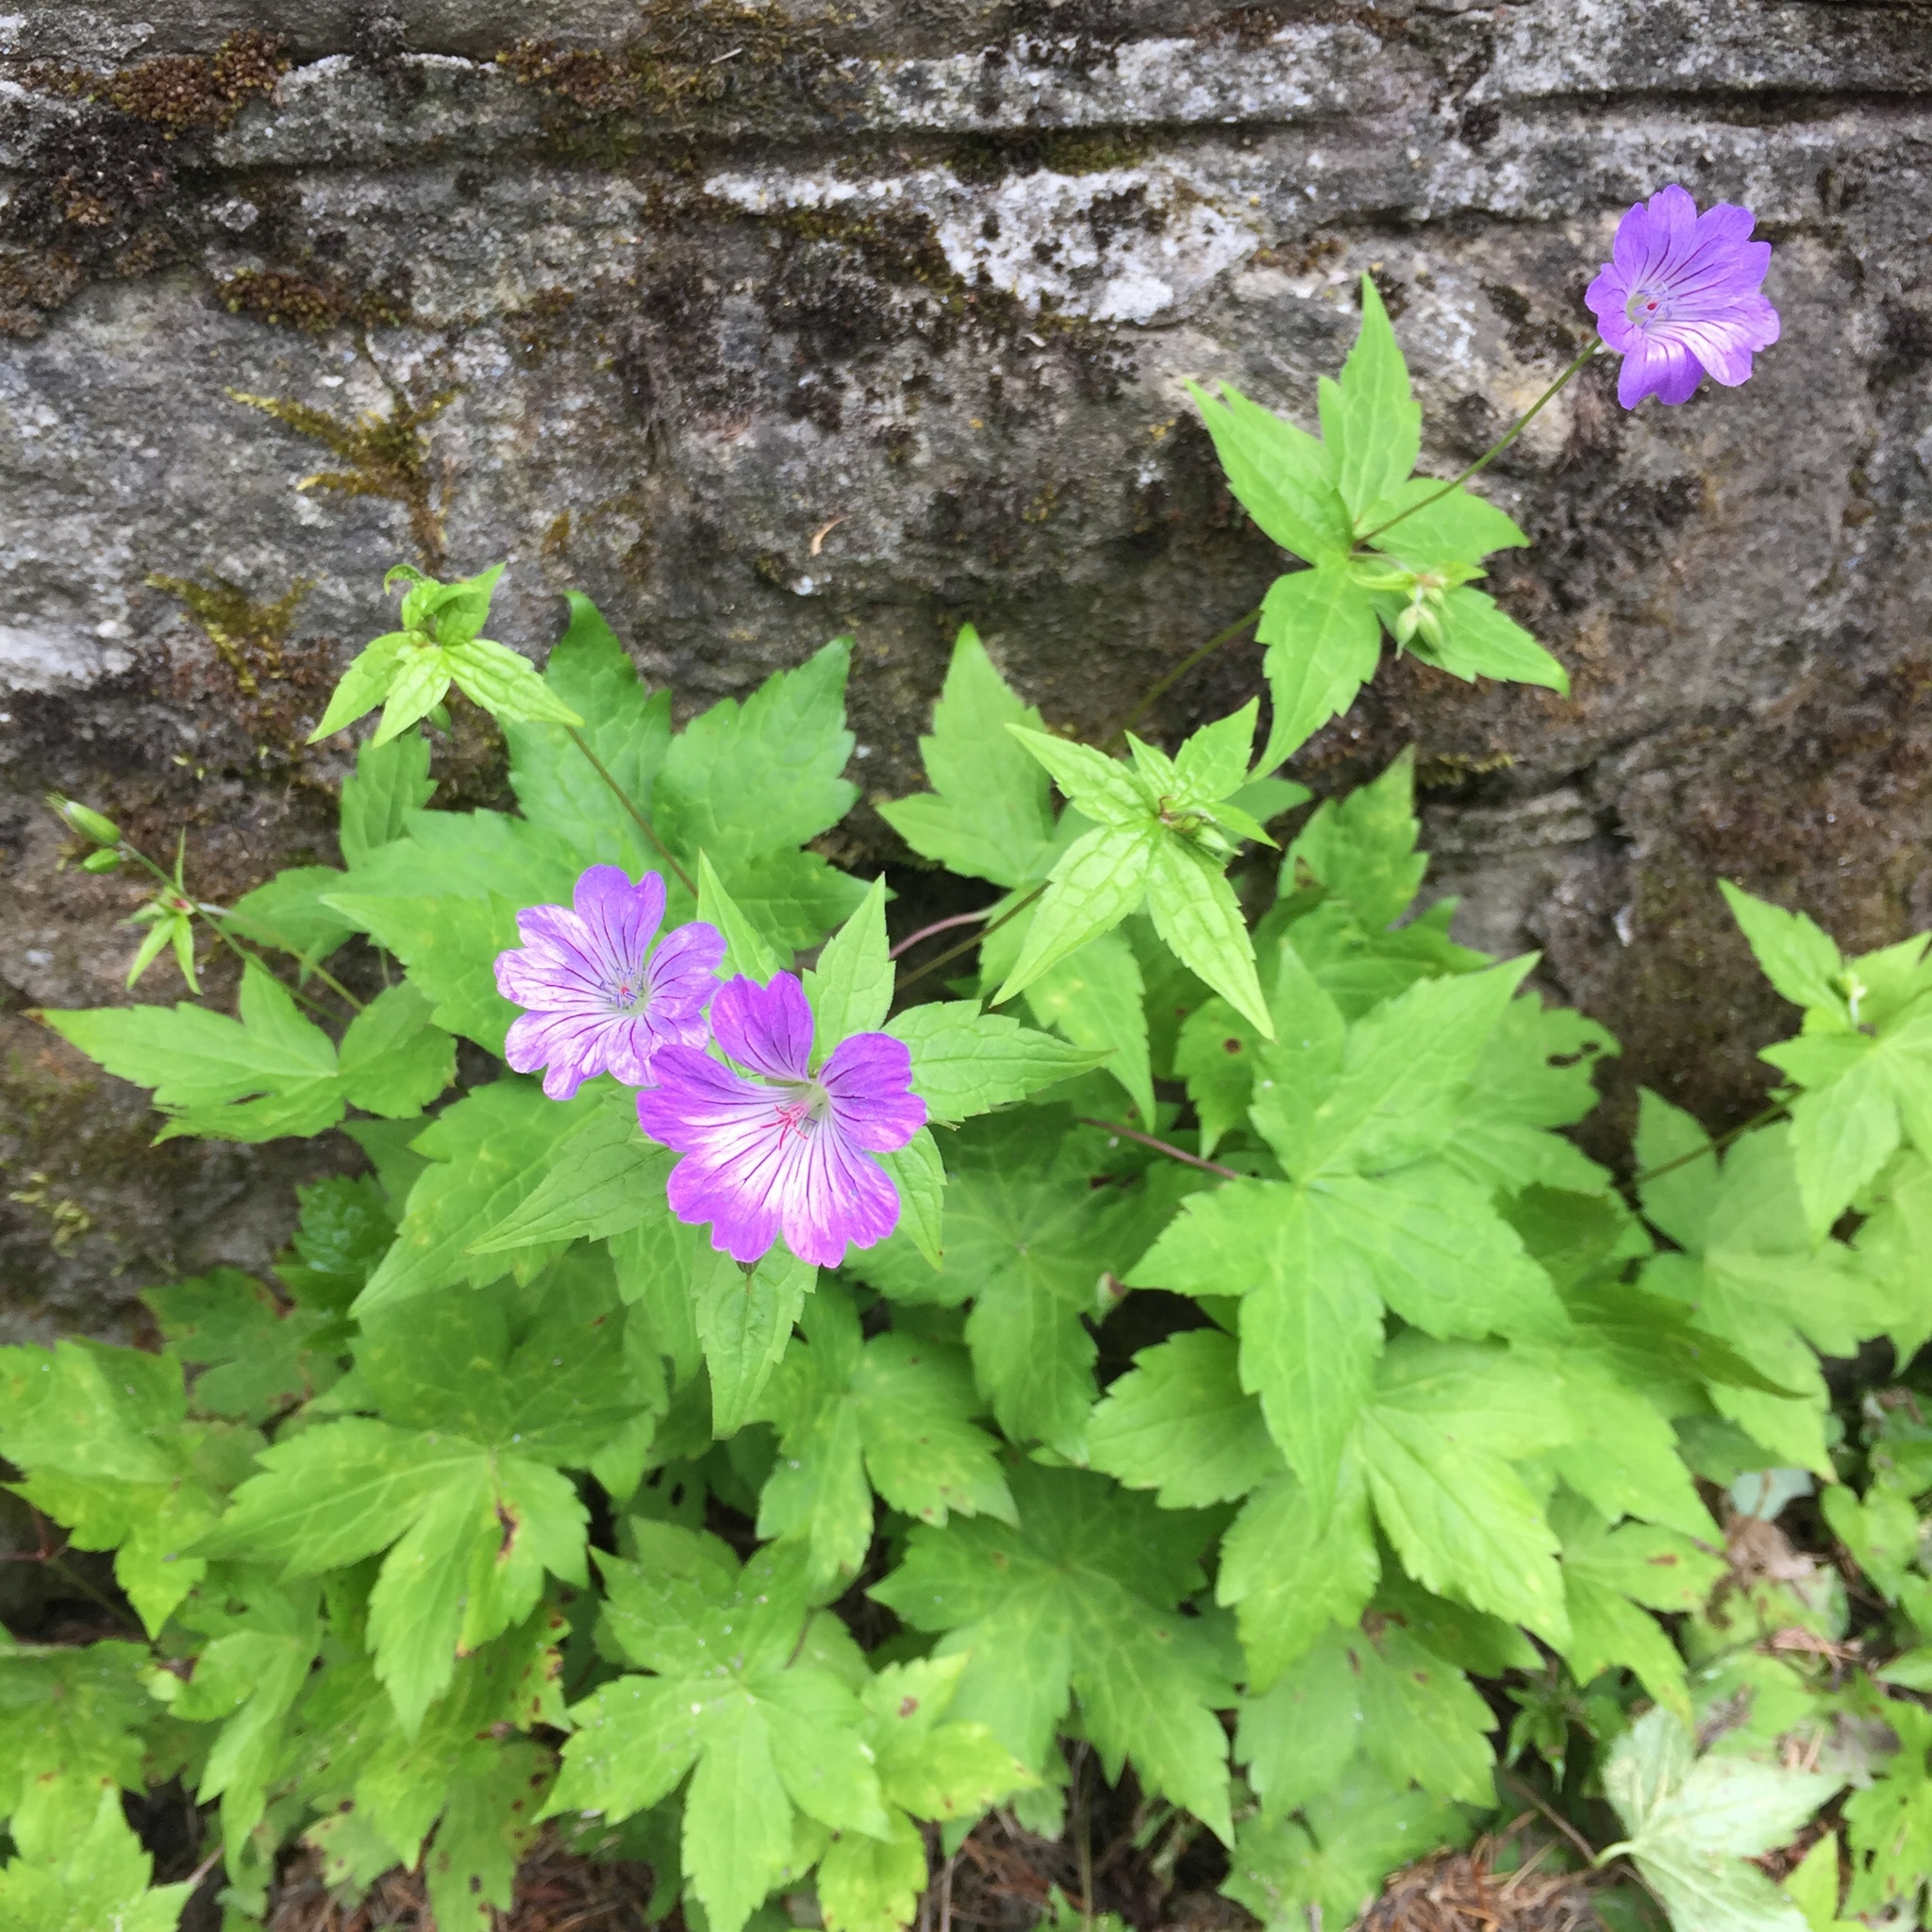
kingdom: Plantae
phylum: Tracheophyta
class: Magnoliopsida
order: Geraniales
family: Geraniaceae
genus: Geranium
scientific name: Geranium nodosum
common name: Knotted crane's-bill
